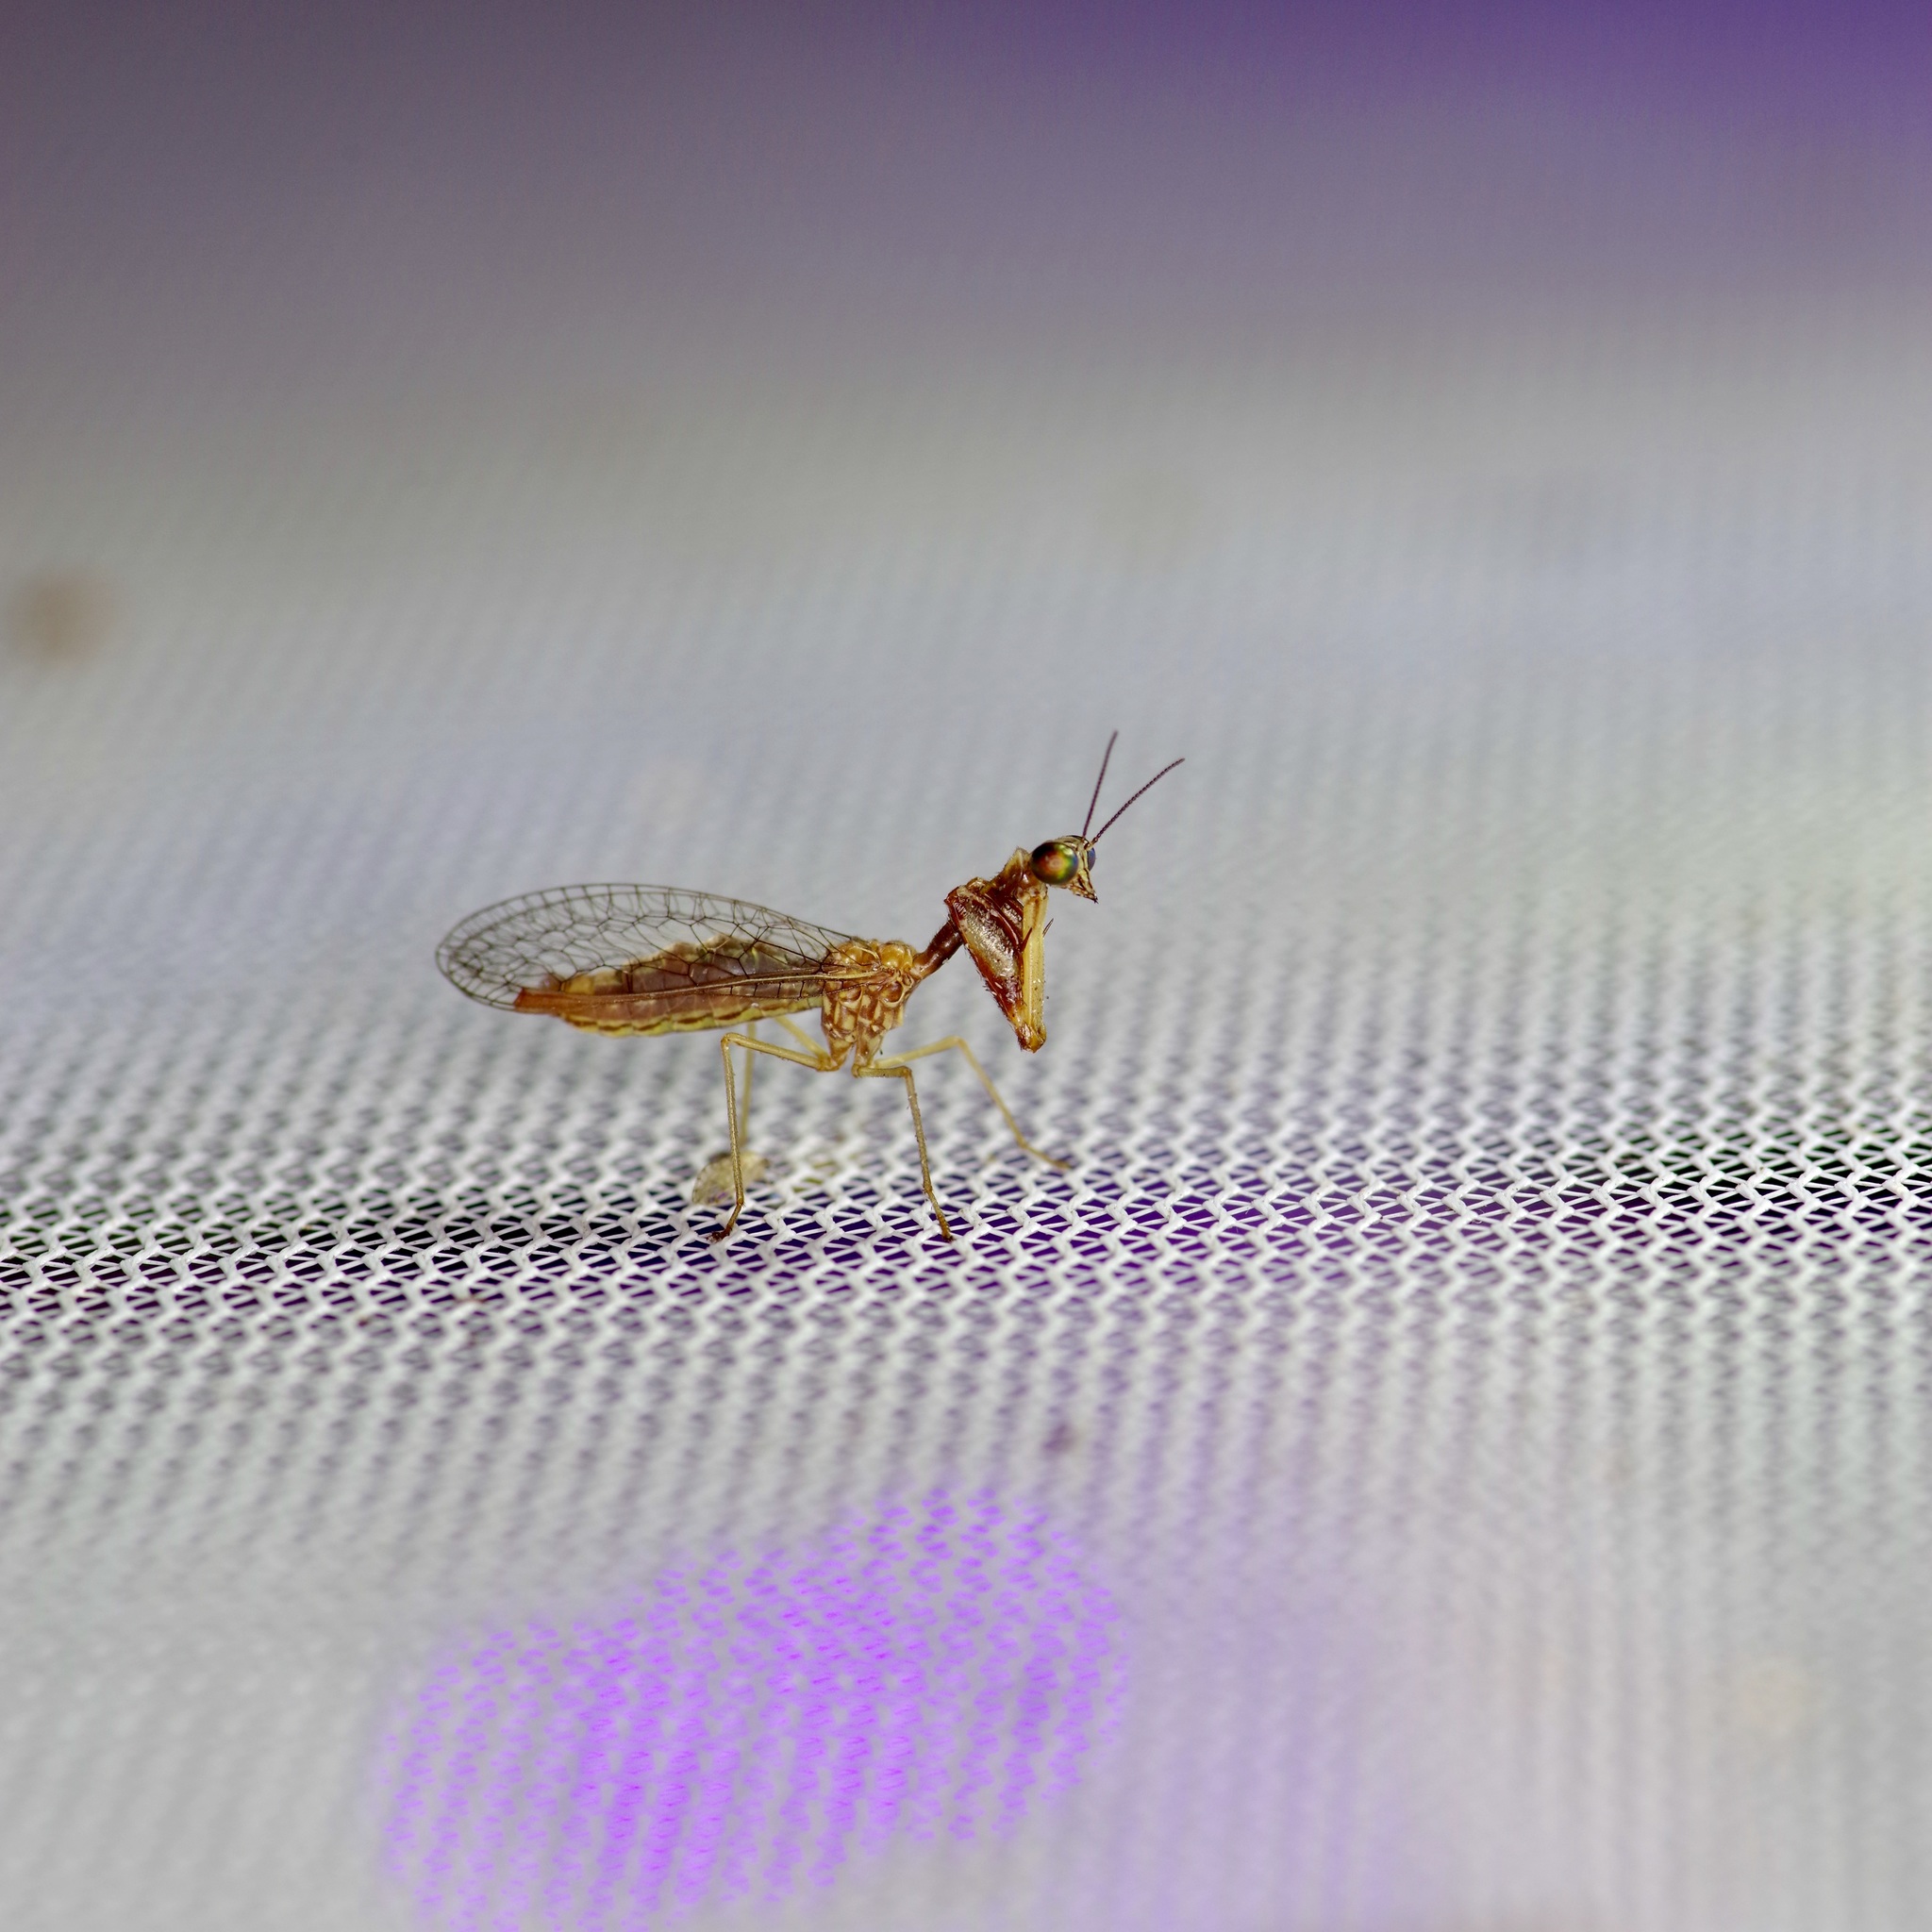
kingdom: Animalia
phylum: Arthropoda
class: Insecta
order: Neuroptera
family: Mantispidae
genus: Leptomantispa
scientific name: Leptomantispa pulchella
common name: Stevens's mantidfly
